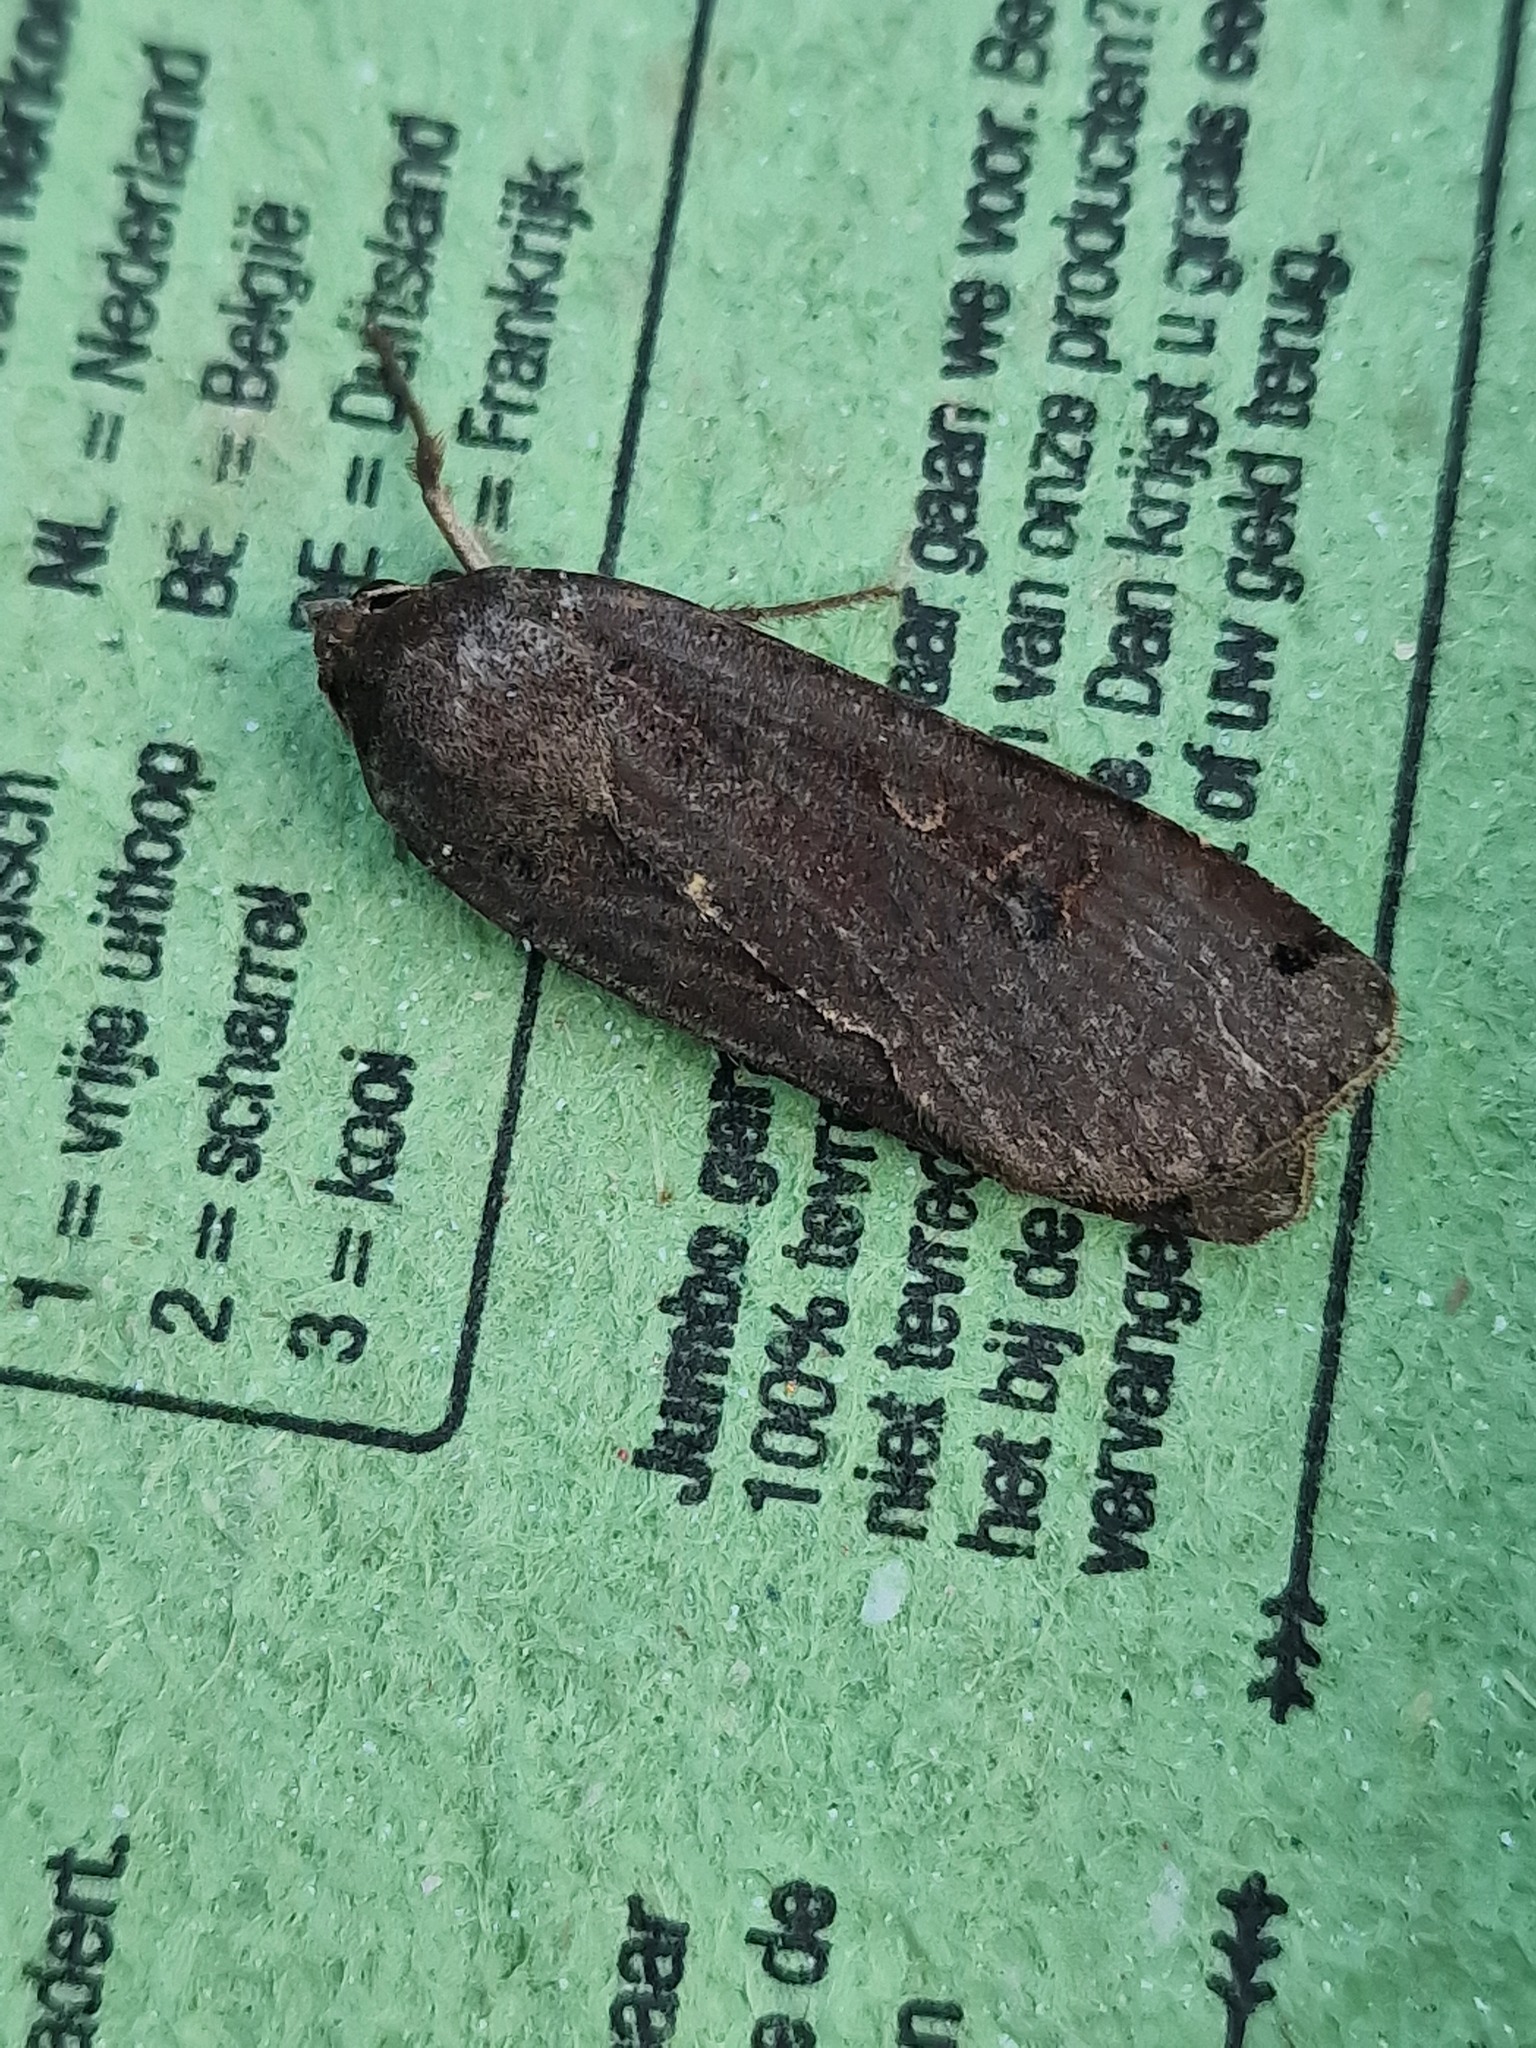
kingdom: Animalia
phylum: Arthropoda
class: Insecta
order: Lepidoptera
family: Noctuidae
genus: Noctua
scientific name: Noctua pronuba
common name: Large yellow underwing
